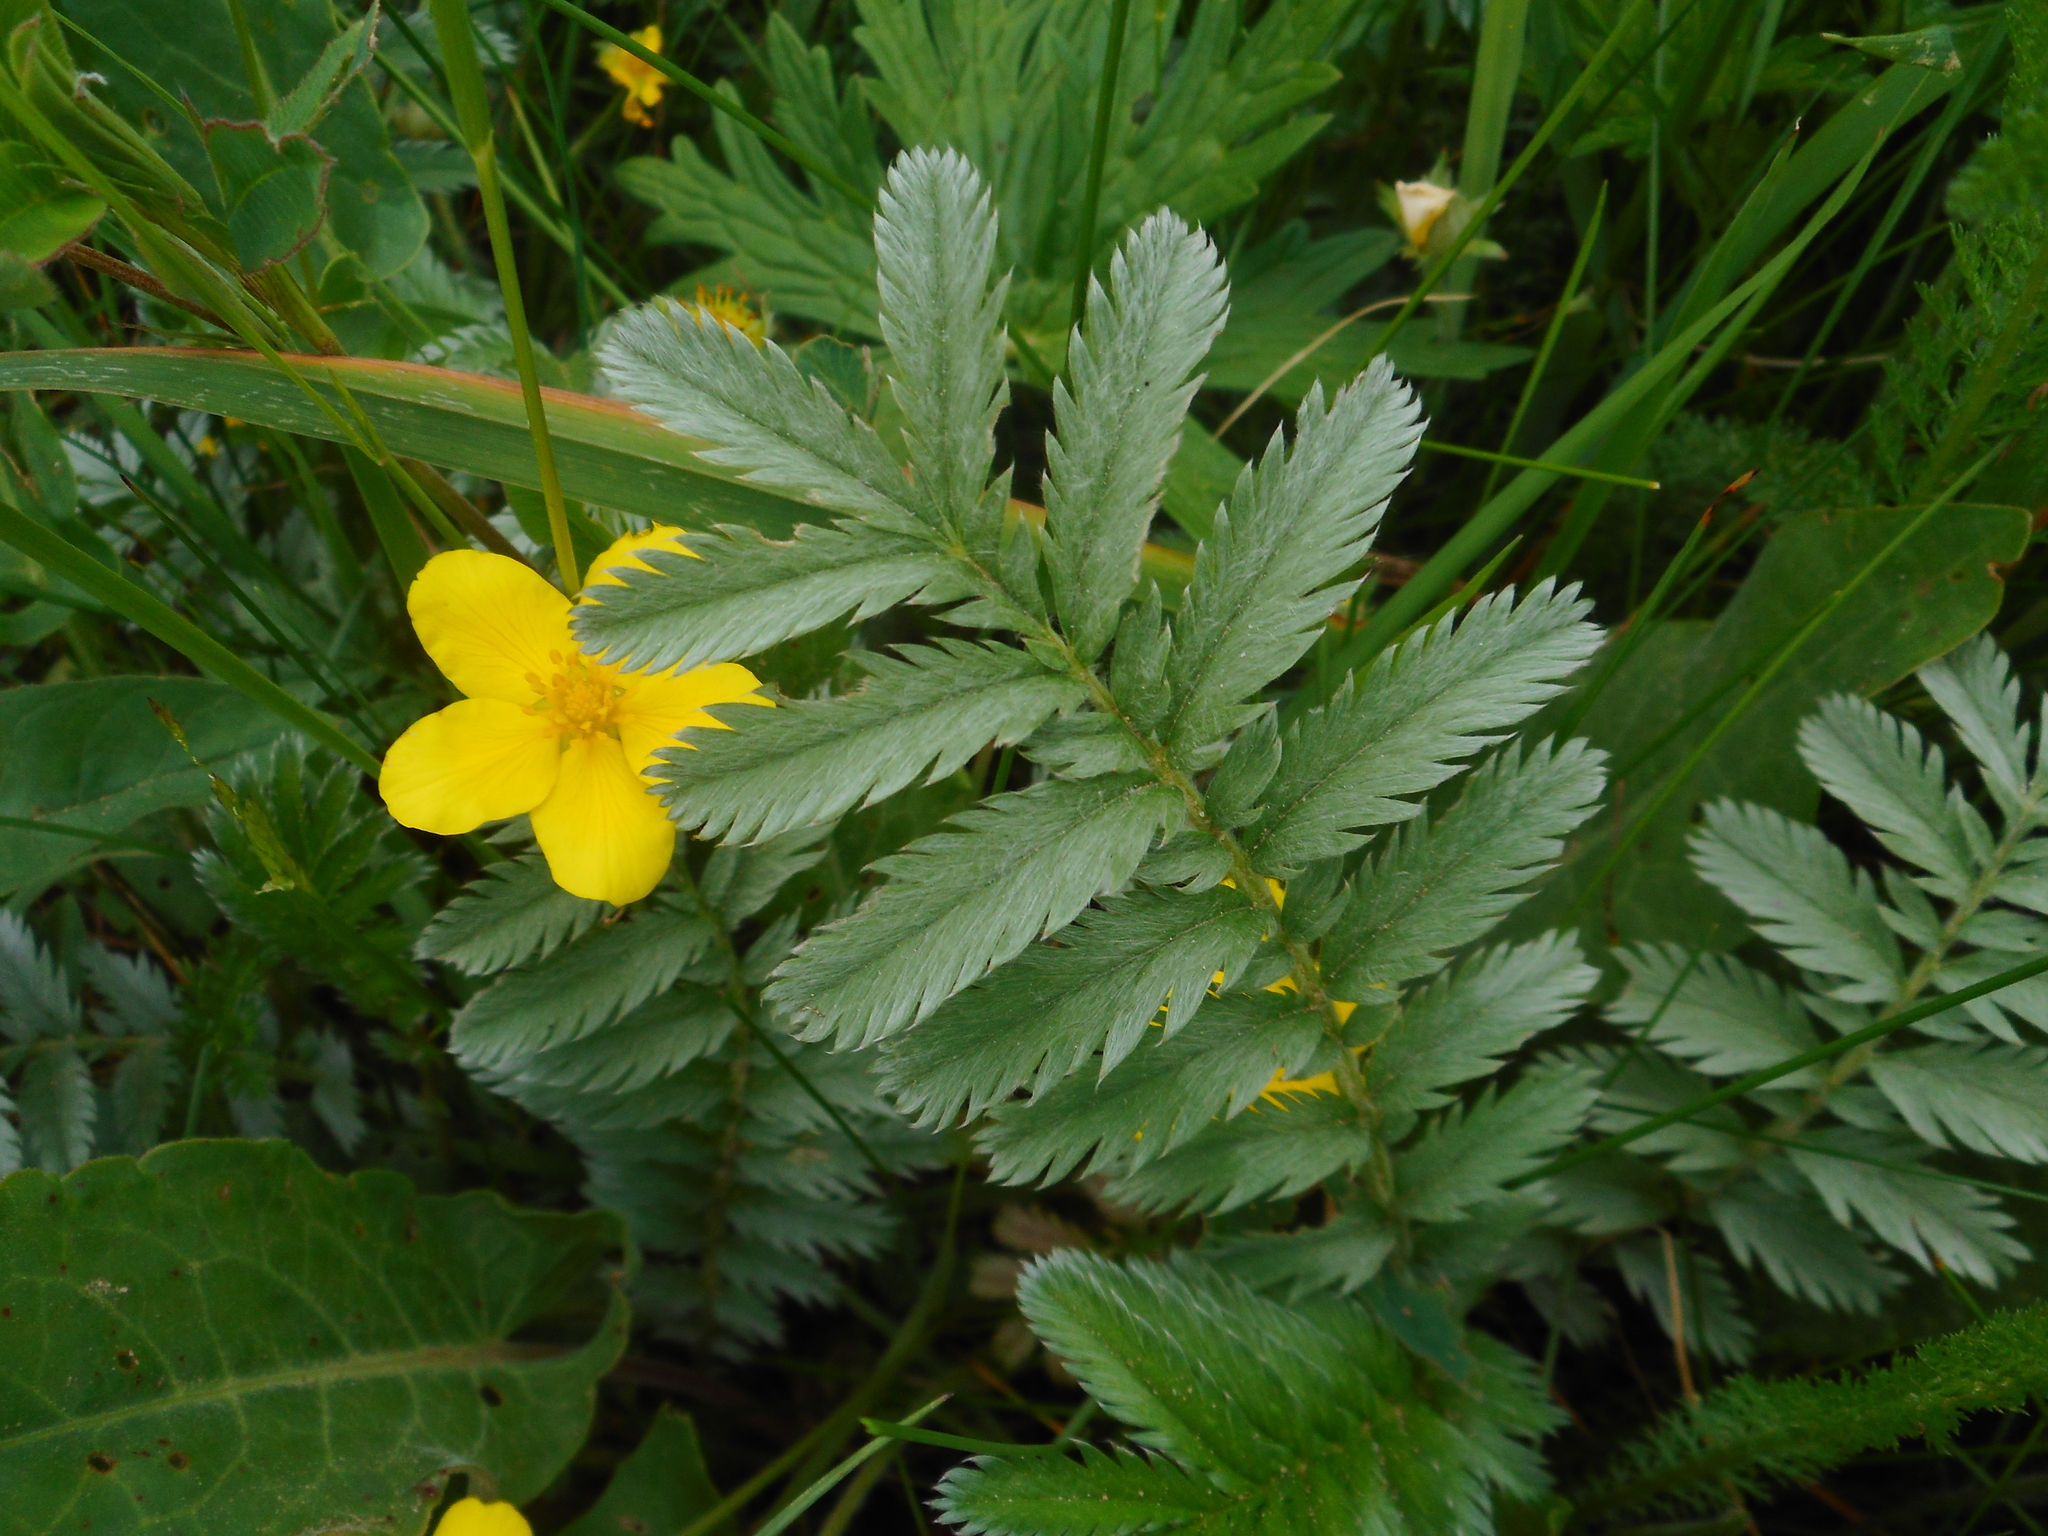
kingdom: Plantae
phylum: Tracheophyta
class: Magnoliopsida
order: Rosales
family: Rosaceae
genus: Argentina
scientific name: Argentina anserina
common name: Common silverweed
